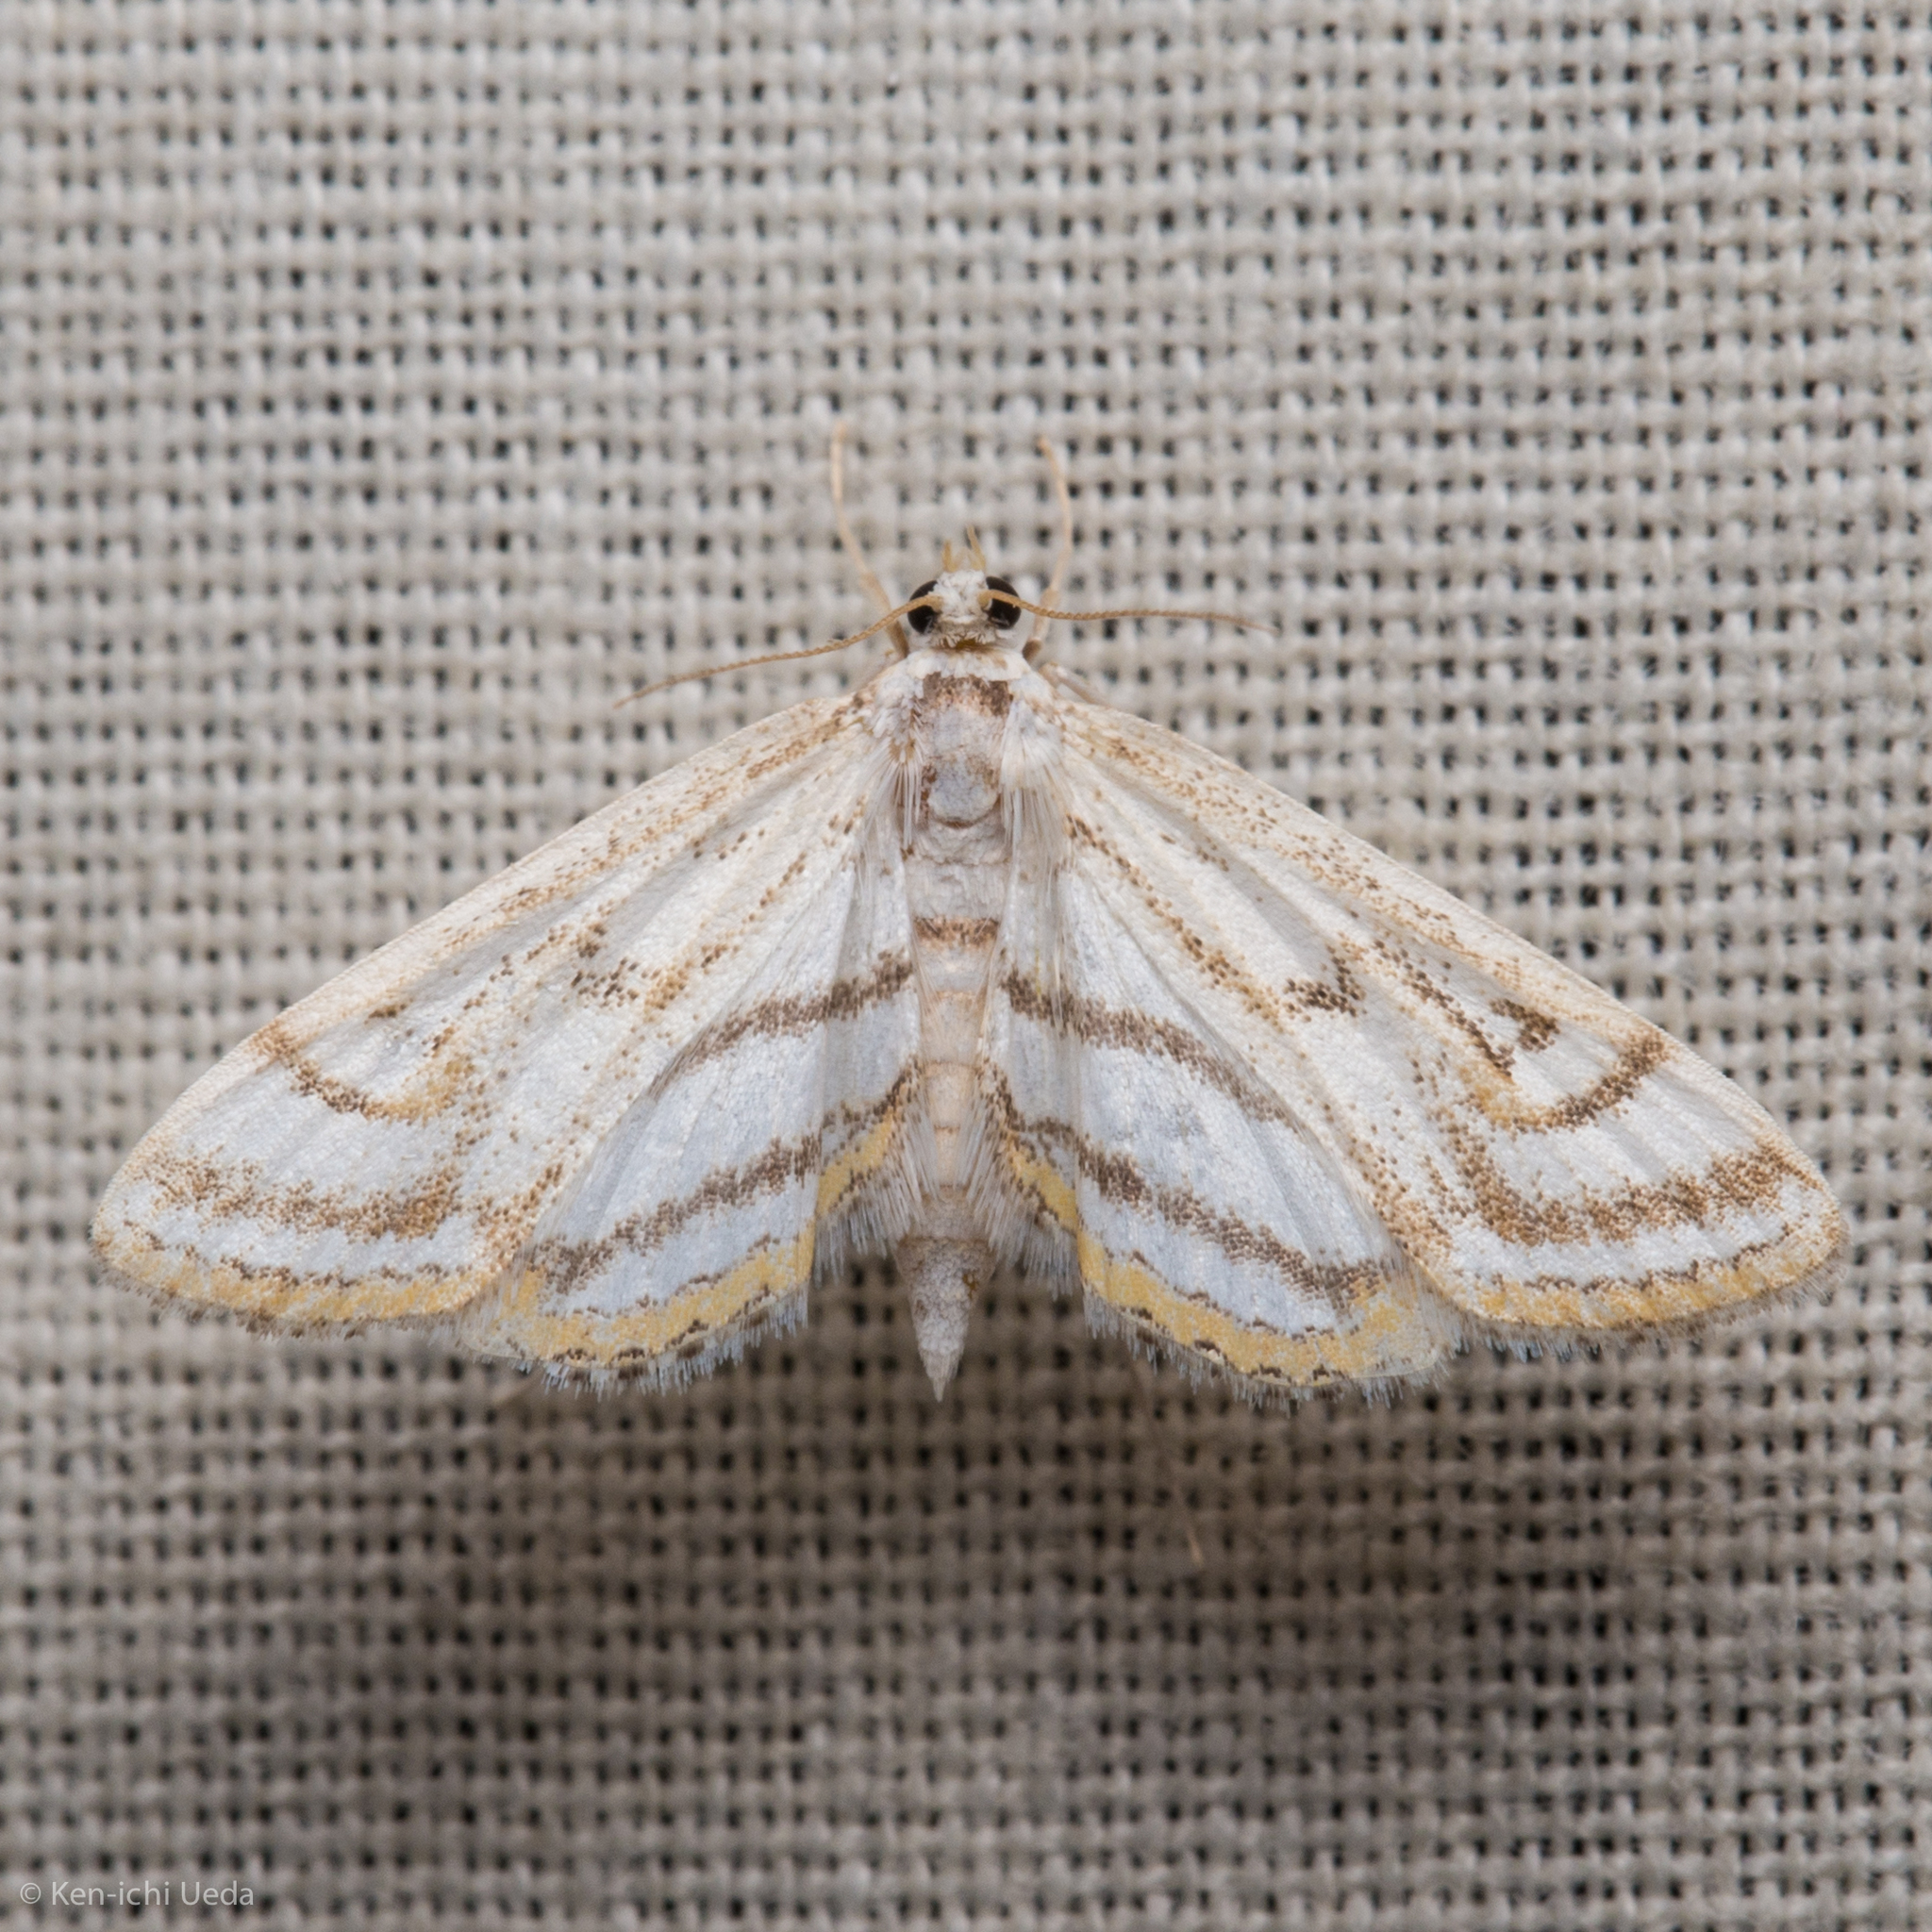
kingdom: Animalia
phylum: Arthropoda
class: Insecta
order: Lepidoptera
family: Crambidae
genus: Parapoynx
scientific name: Parapoynx badiusalis
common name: Chestnut-marked pondweed moth
